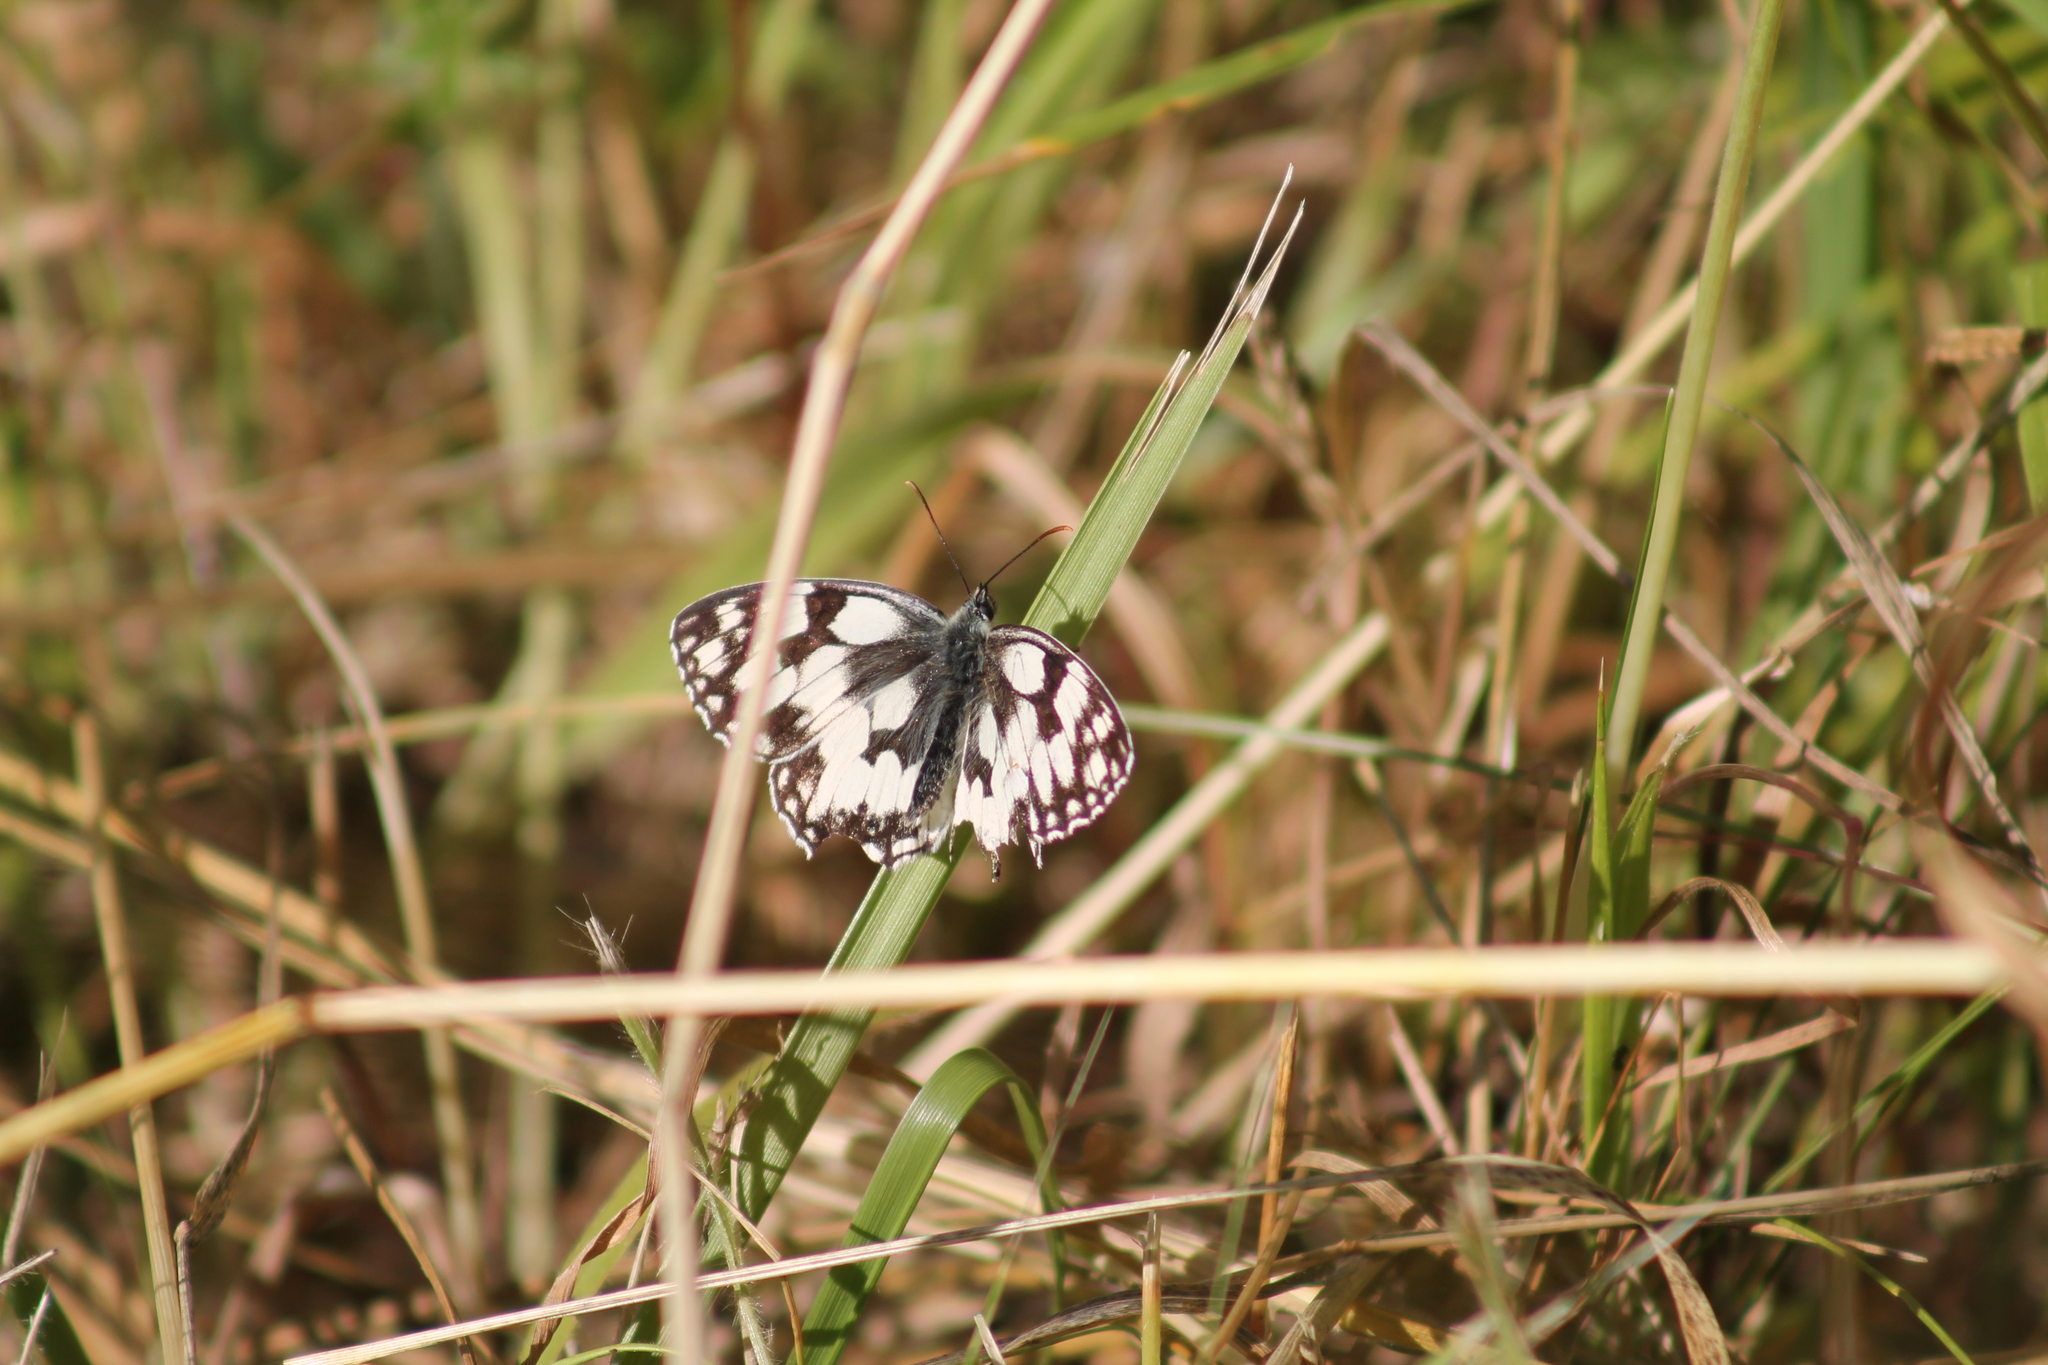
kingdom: Animalia
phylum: Arthropoda
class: Insecta
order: Lepidoptera
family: Nymphalidae
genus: Melanargia
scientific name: Melanargia galathea
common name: Marbled white
